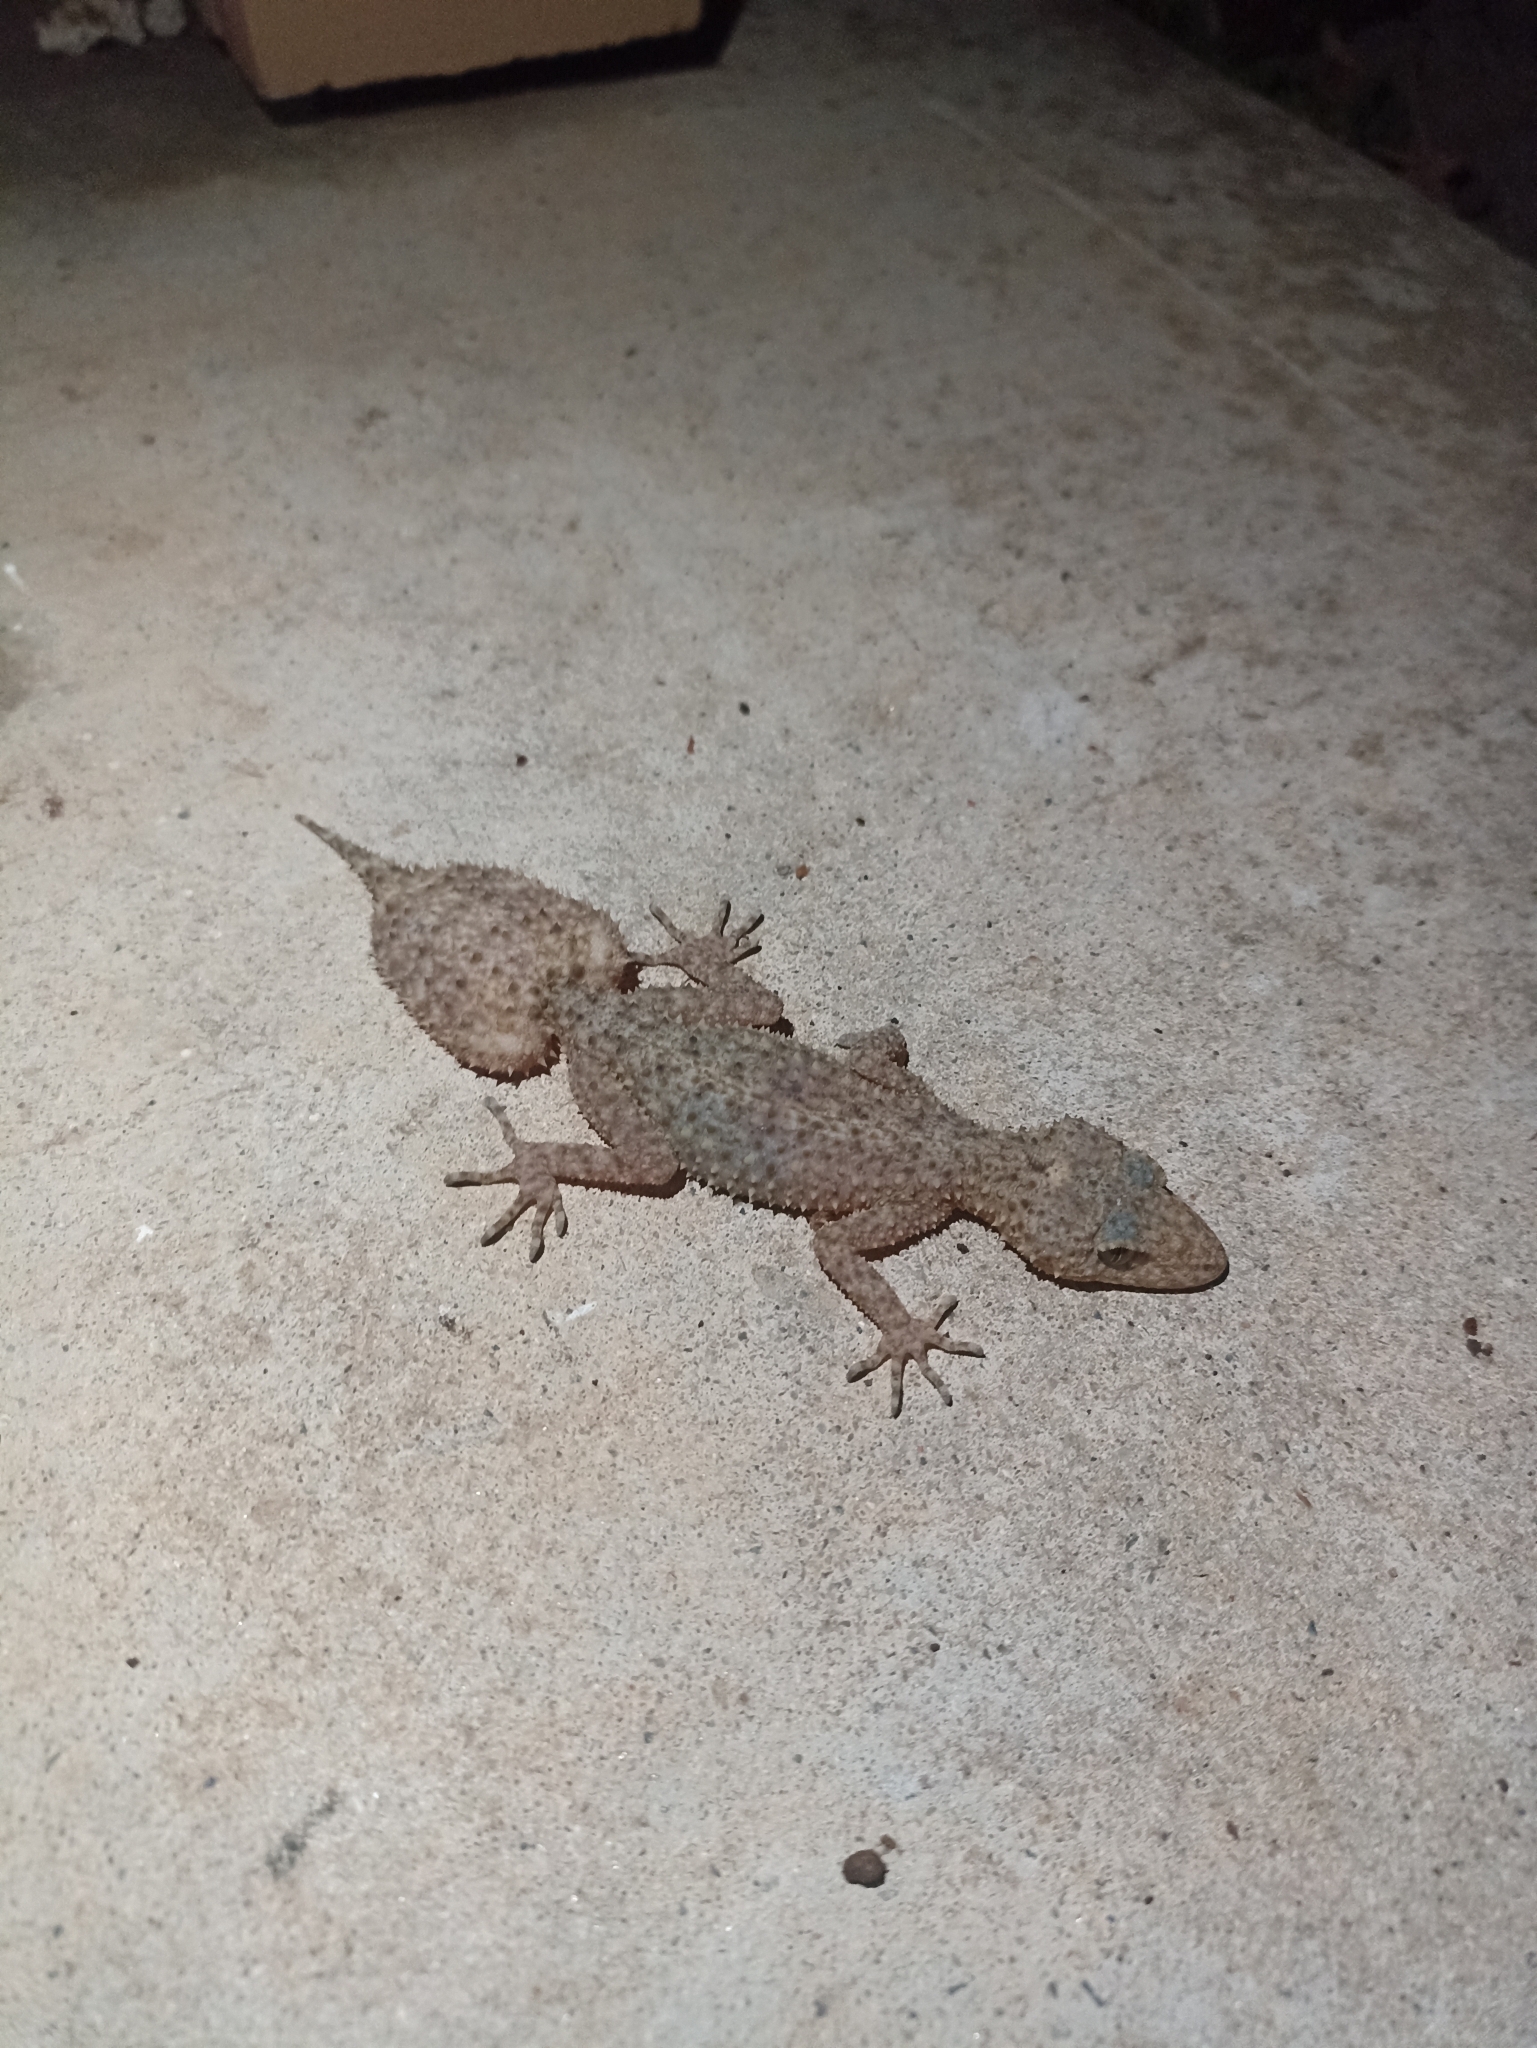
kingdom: Animalia
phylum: Chordata
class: Squamata
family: Carphodactylidae
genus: Phyllurus
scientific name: Phyllurus platurus
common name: Broad-tailed gecko
